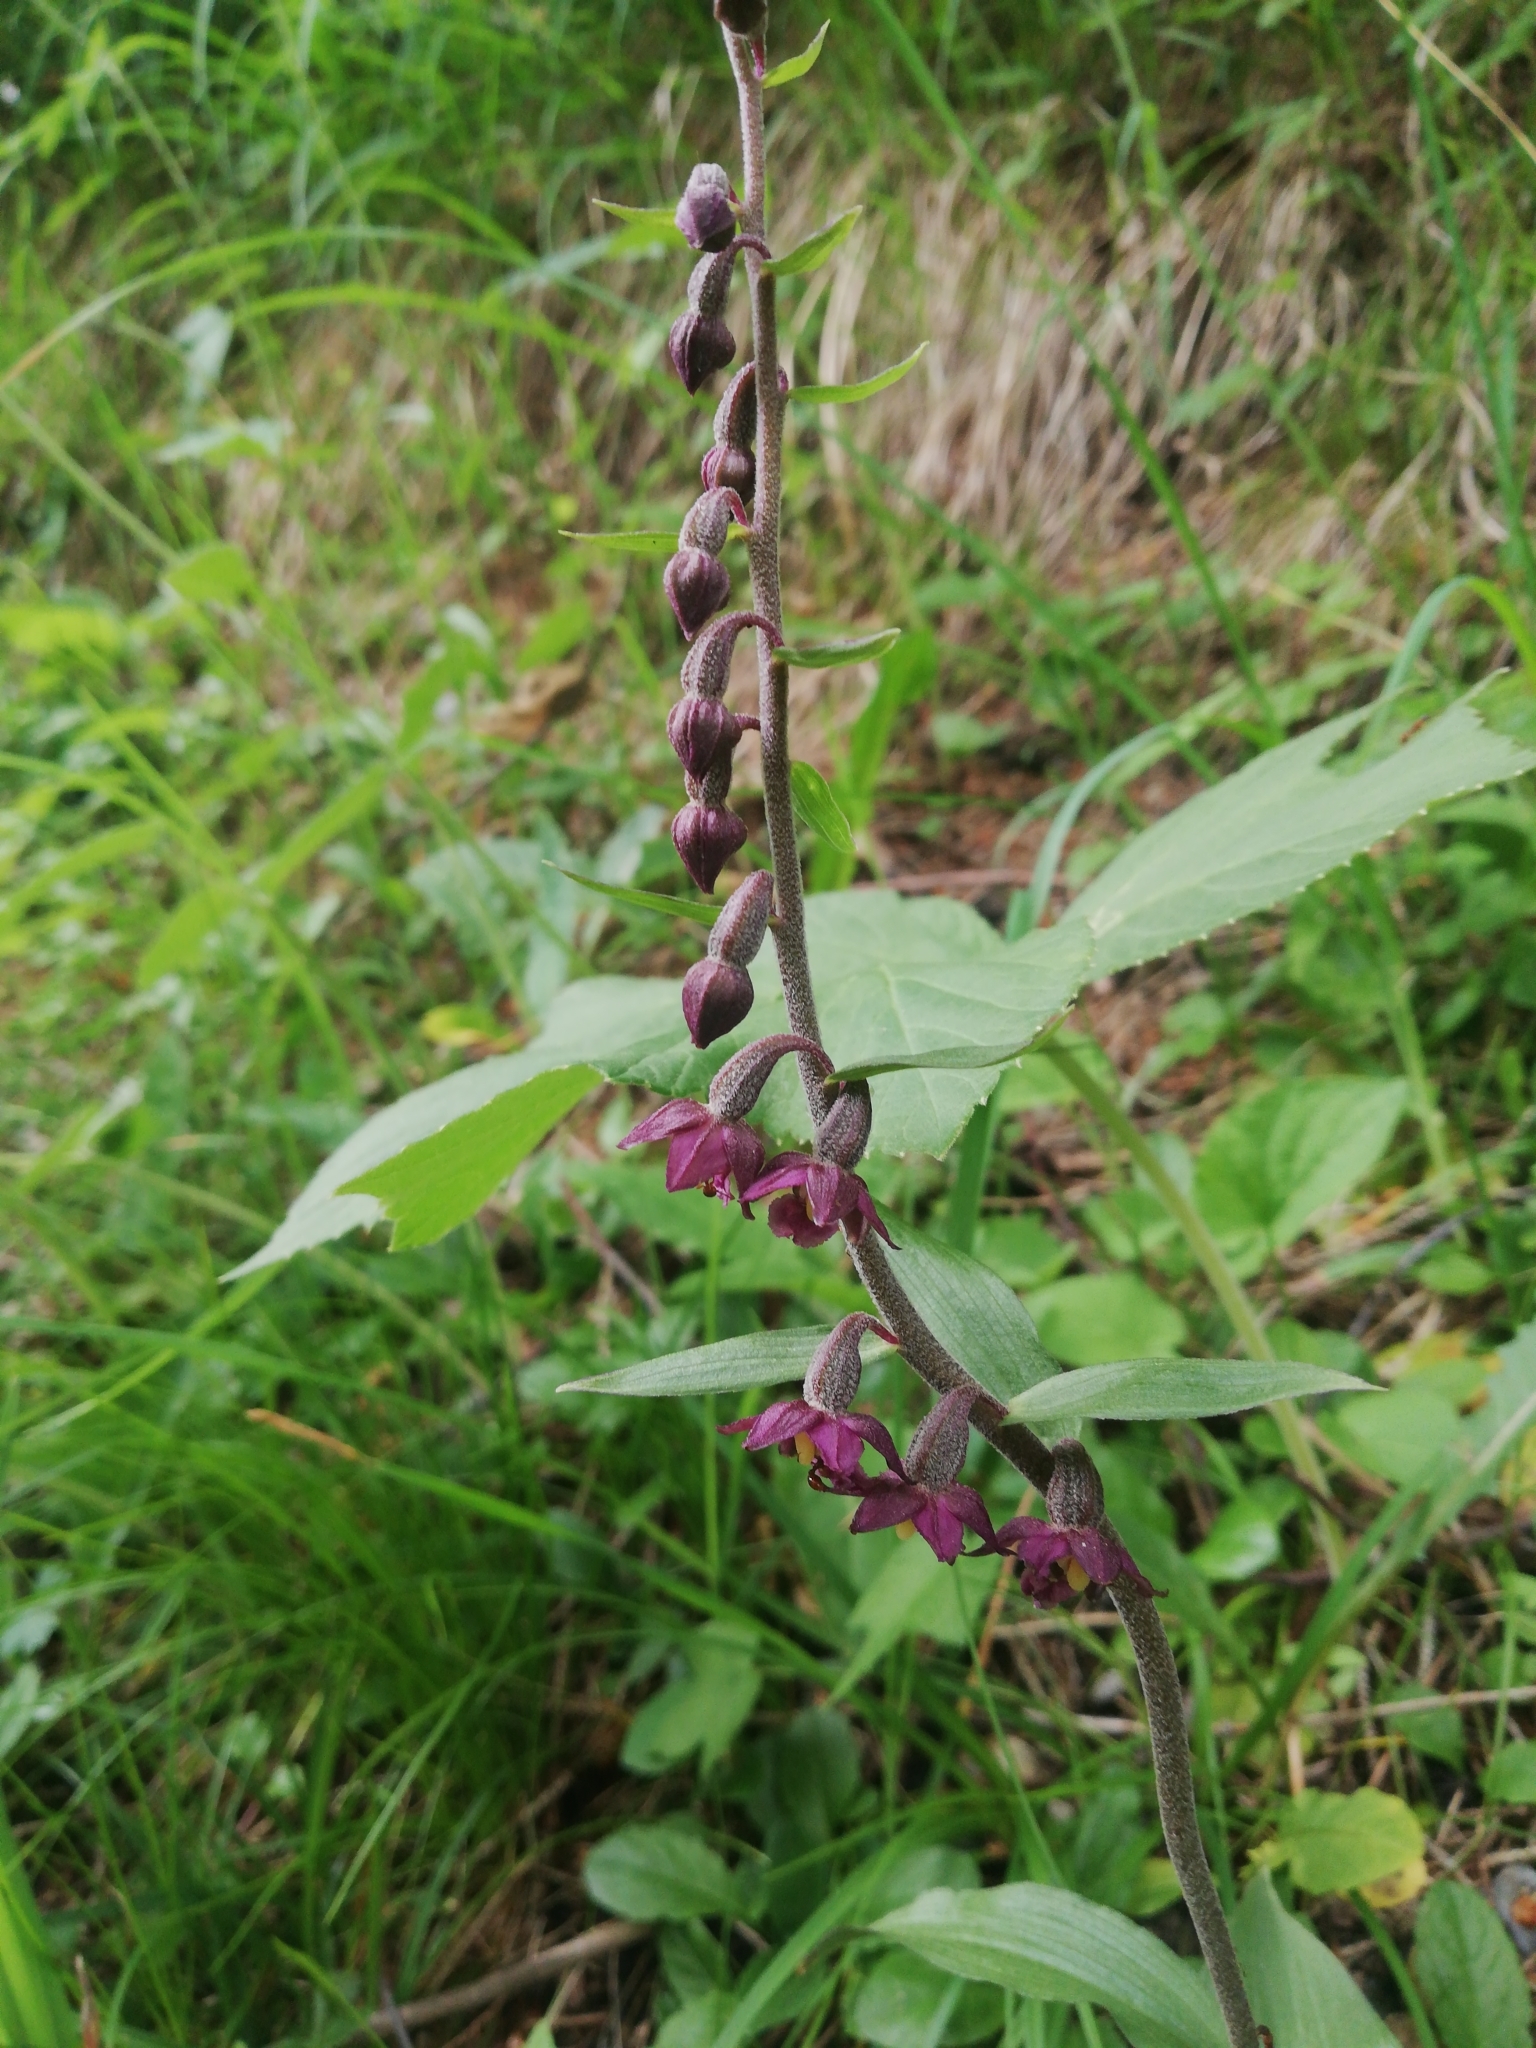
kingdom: Plantae
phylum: Tracheophyta
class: Liliopsida
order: Asparagales
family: Orchidaceae
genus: Epipactis
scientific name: Epipactis atrorubens
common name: Dark-red helleborine
